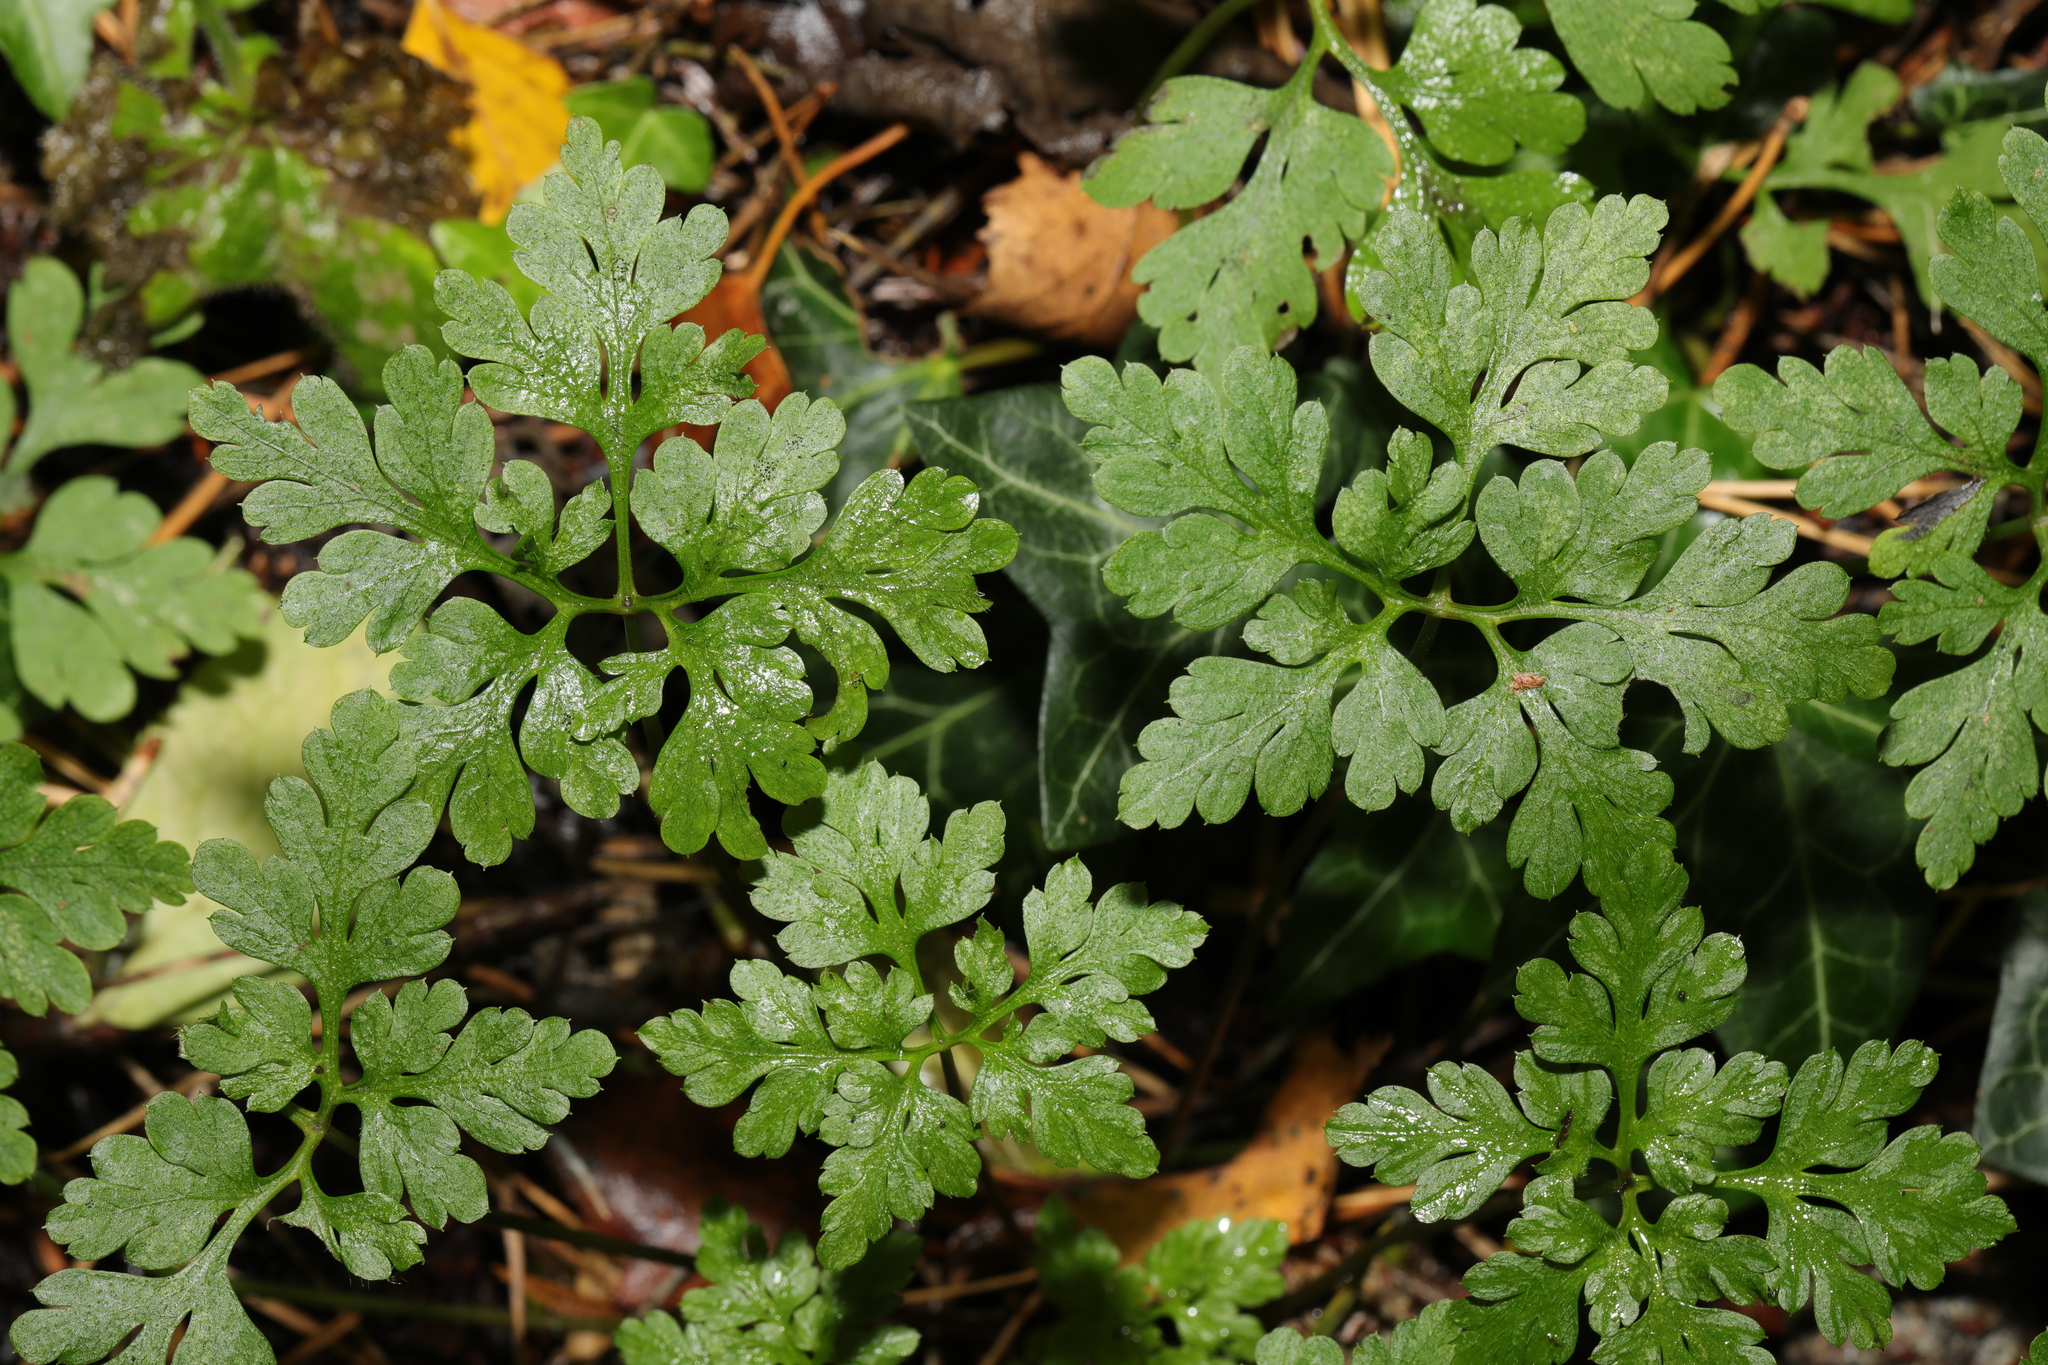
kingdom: Plantae
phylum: Tracheophyta
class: Magnoliopsida
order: Geraniales
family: Geraniaceae
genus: Geranium
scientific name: Geranium robertianum
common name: Herb-robert
